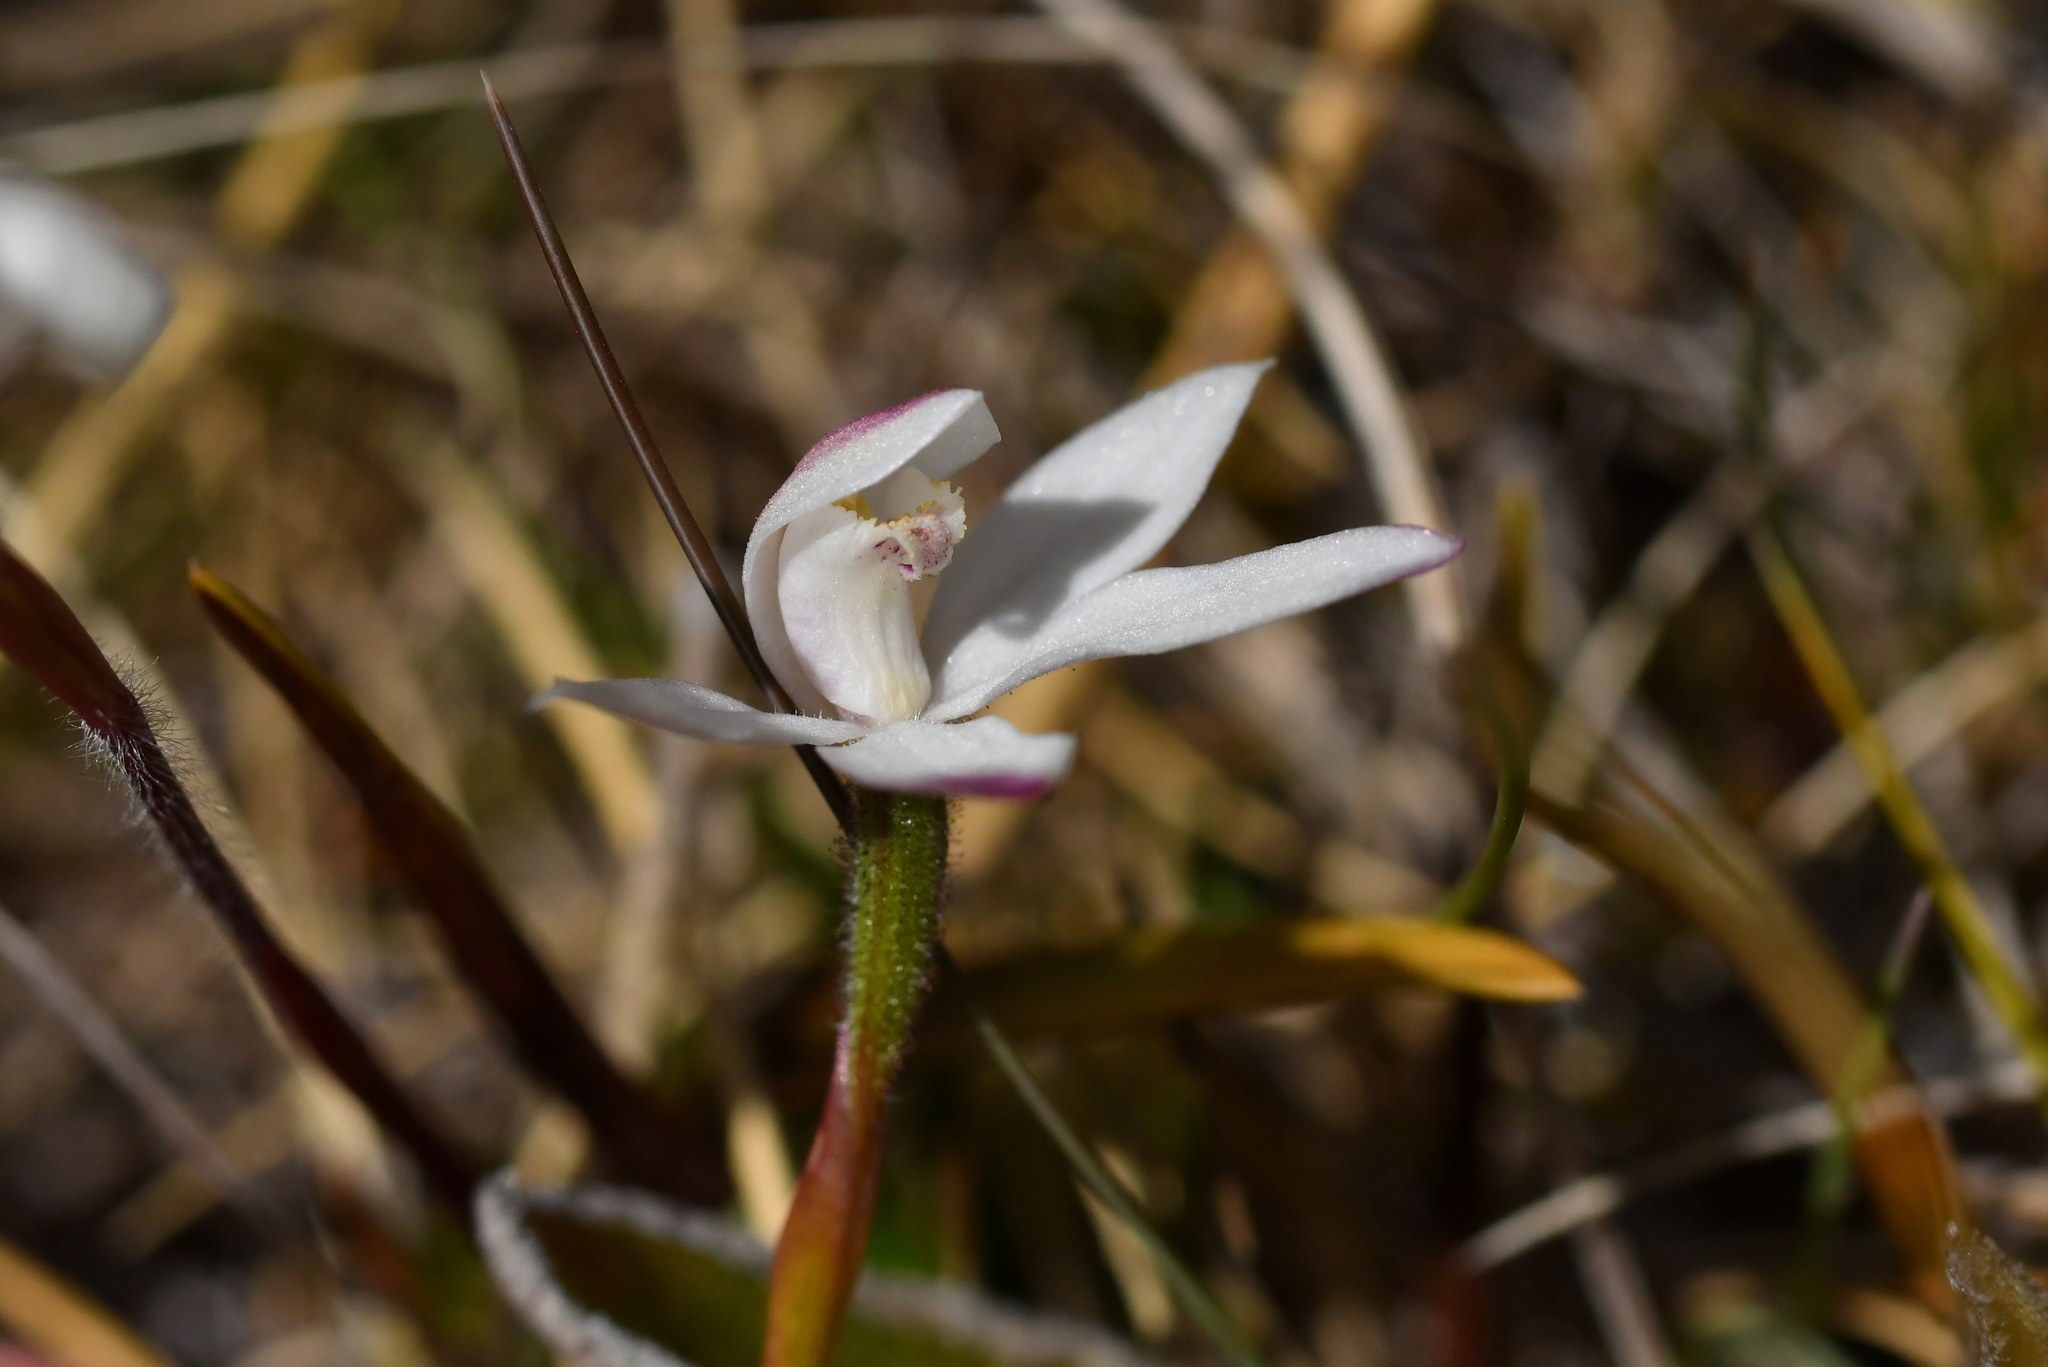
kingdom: Plantae
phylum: Tracheophyta
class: Liliopsida
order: Asparagales
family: Orchidaceae
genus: Caladenia
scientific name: Caladenia lyallii
